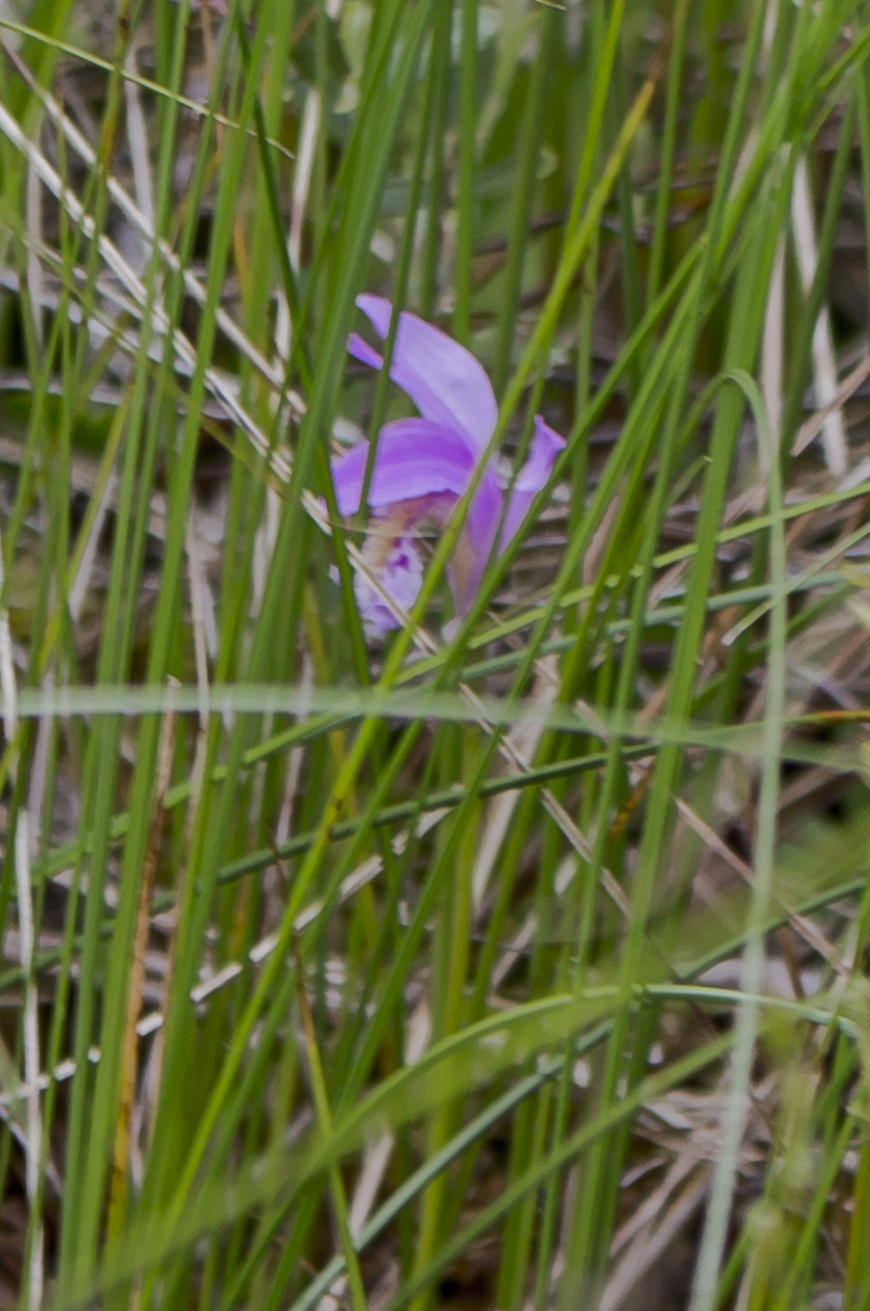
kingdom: Plantae
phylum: Tracheophyta
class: Liliopsida
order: Asparagales
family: Orchidaceae
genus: Arethusa
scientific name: Arethusa bulbosa
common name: Arethusa
